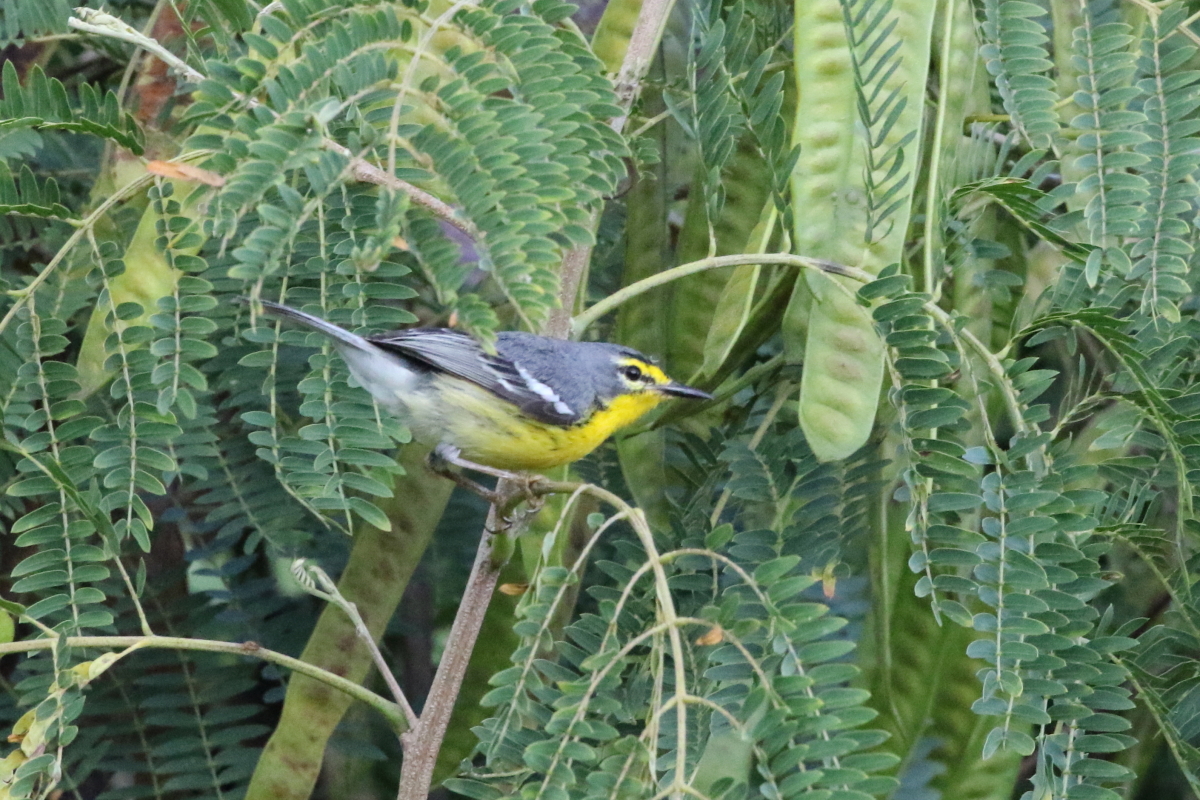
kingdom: Animalia
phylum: Chordata
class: Aves
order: Passeriformes
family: Parulidae
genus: Setophaga
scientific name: Setophaga adelaidae
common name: Adelaide's warbler
